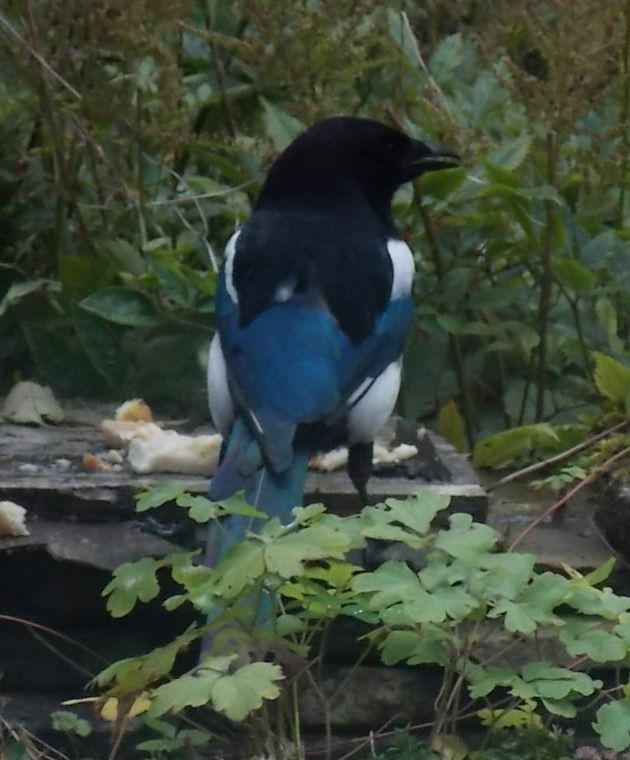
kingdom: Animalia
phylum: Chordata
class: Aves
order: Passeriformes
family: Corvidae
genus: Pica
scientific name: Pica pica
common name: Eurasian magpie
